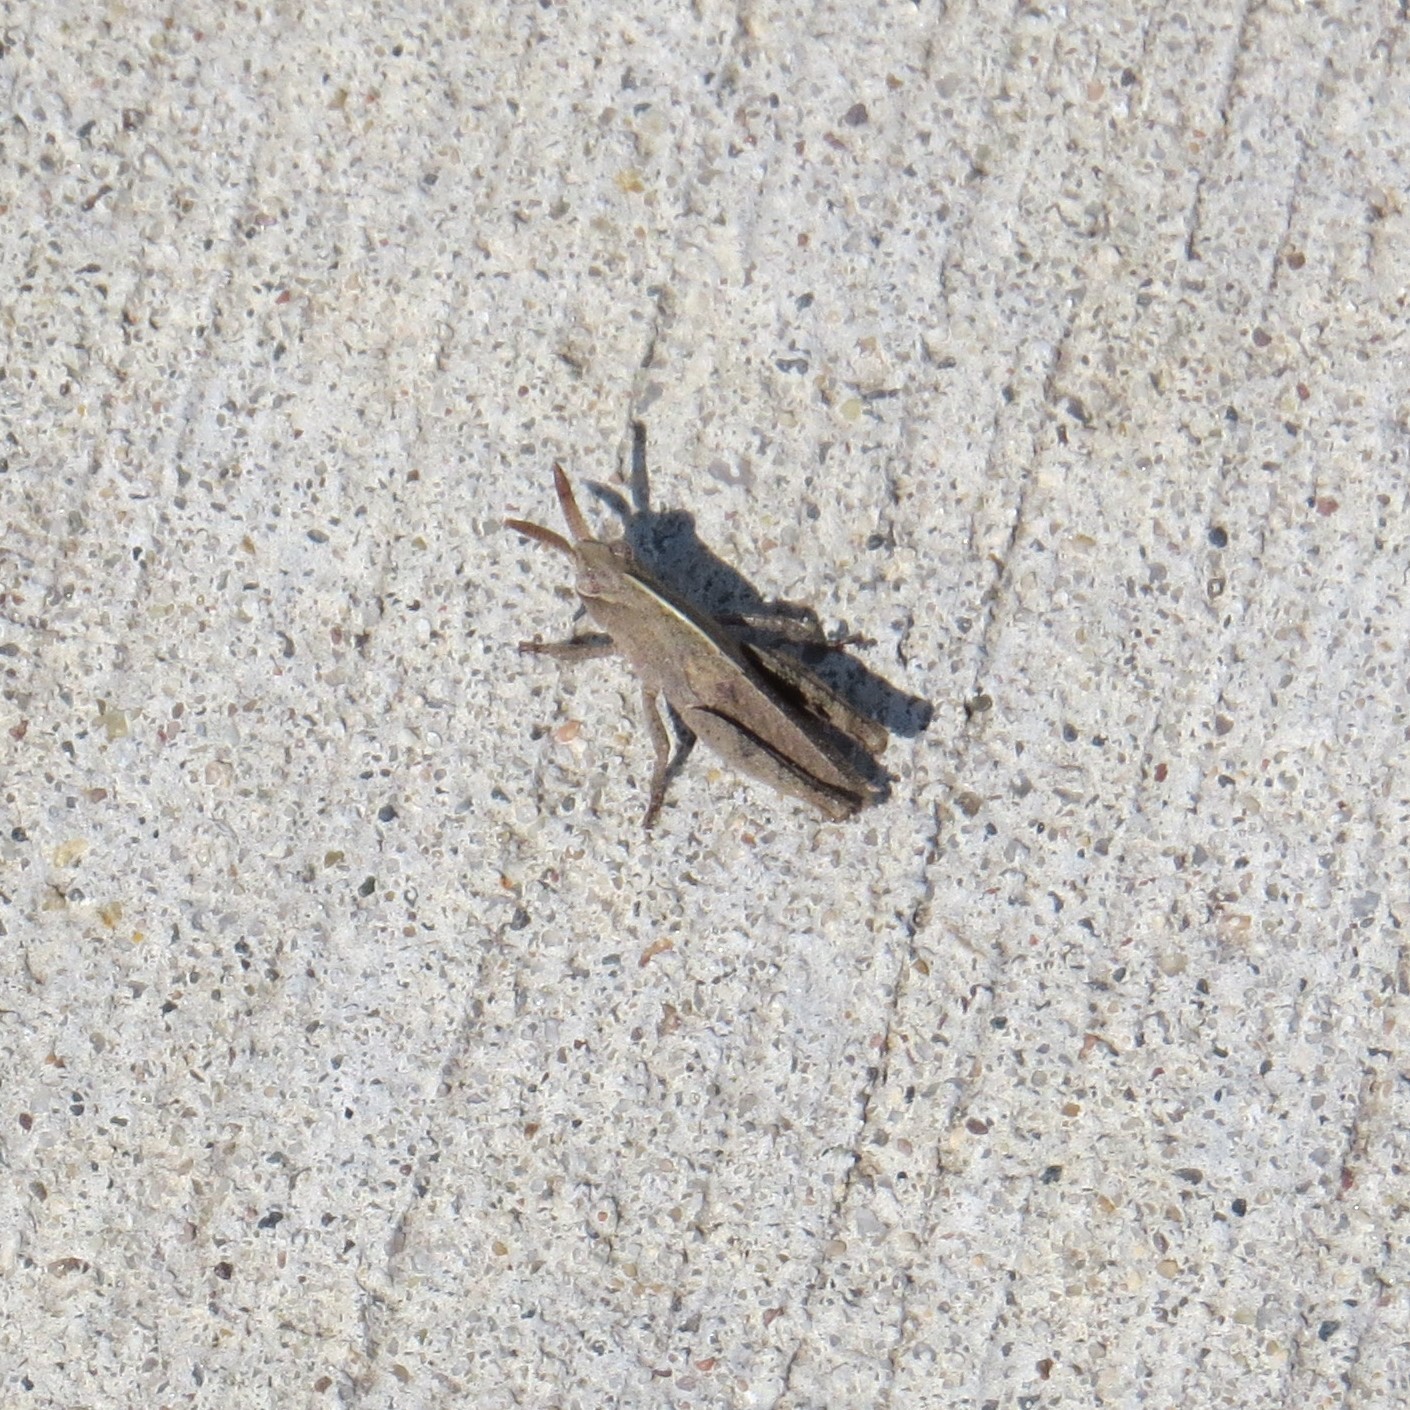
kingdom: Animalia
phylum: Arthropoda
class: Insecta
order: Orthoptera
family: Acrididae
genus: Chortophaga
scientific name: Chortophaga viridifasciata
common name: Green-striped grasshopper
